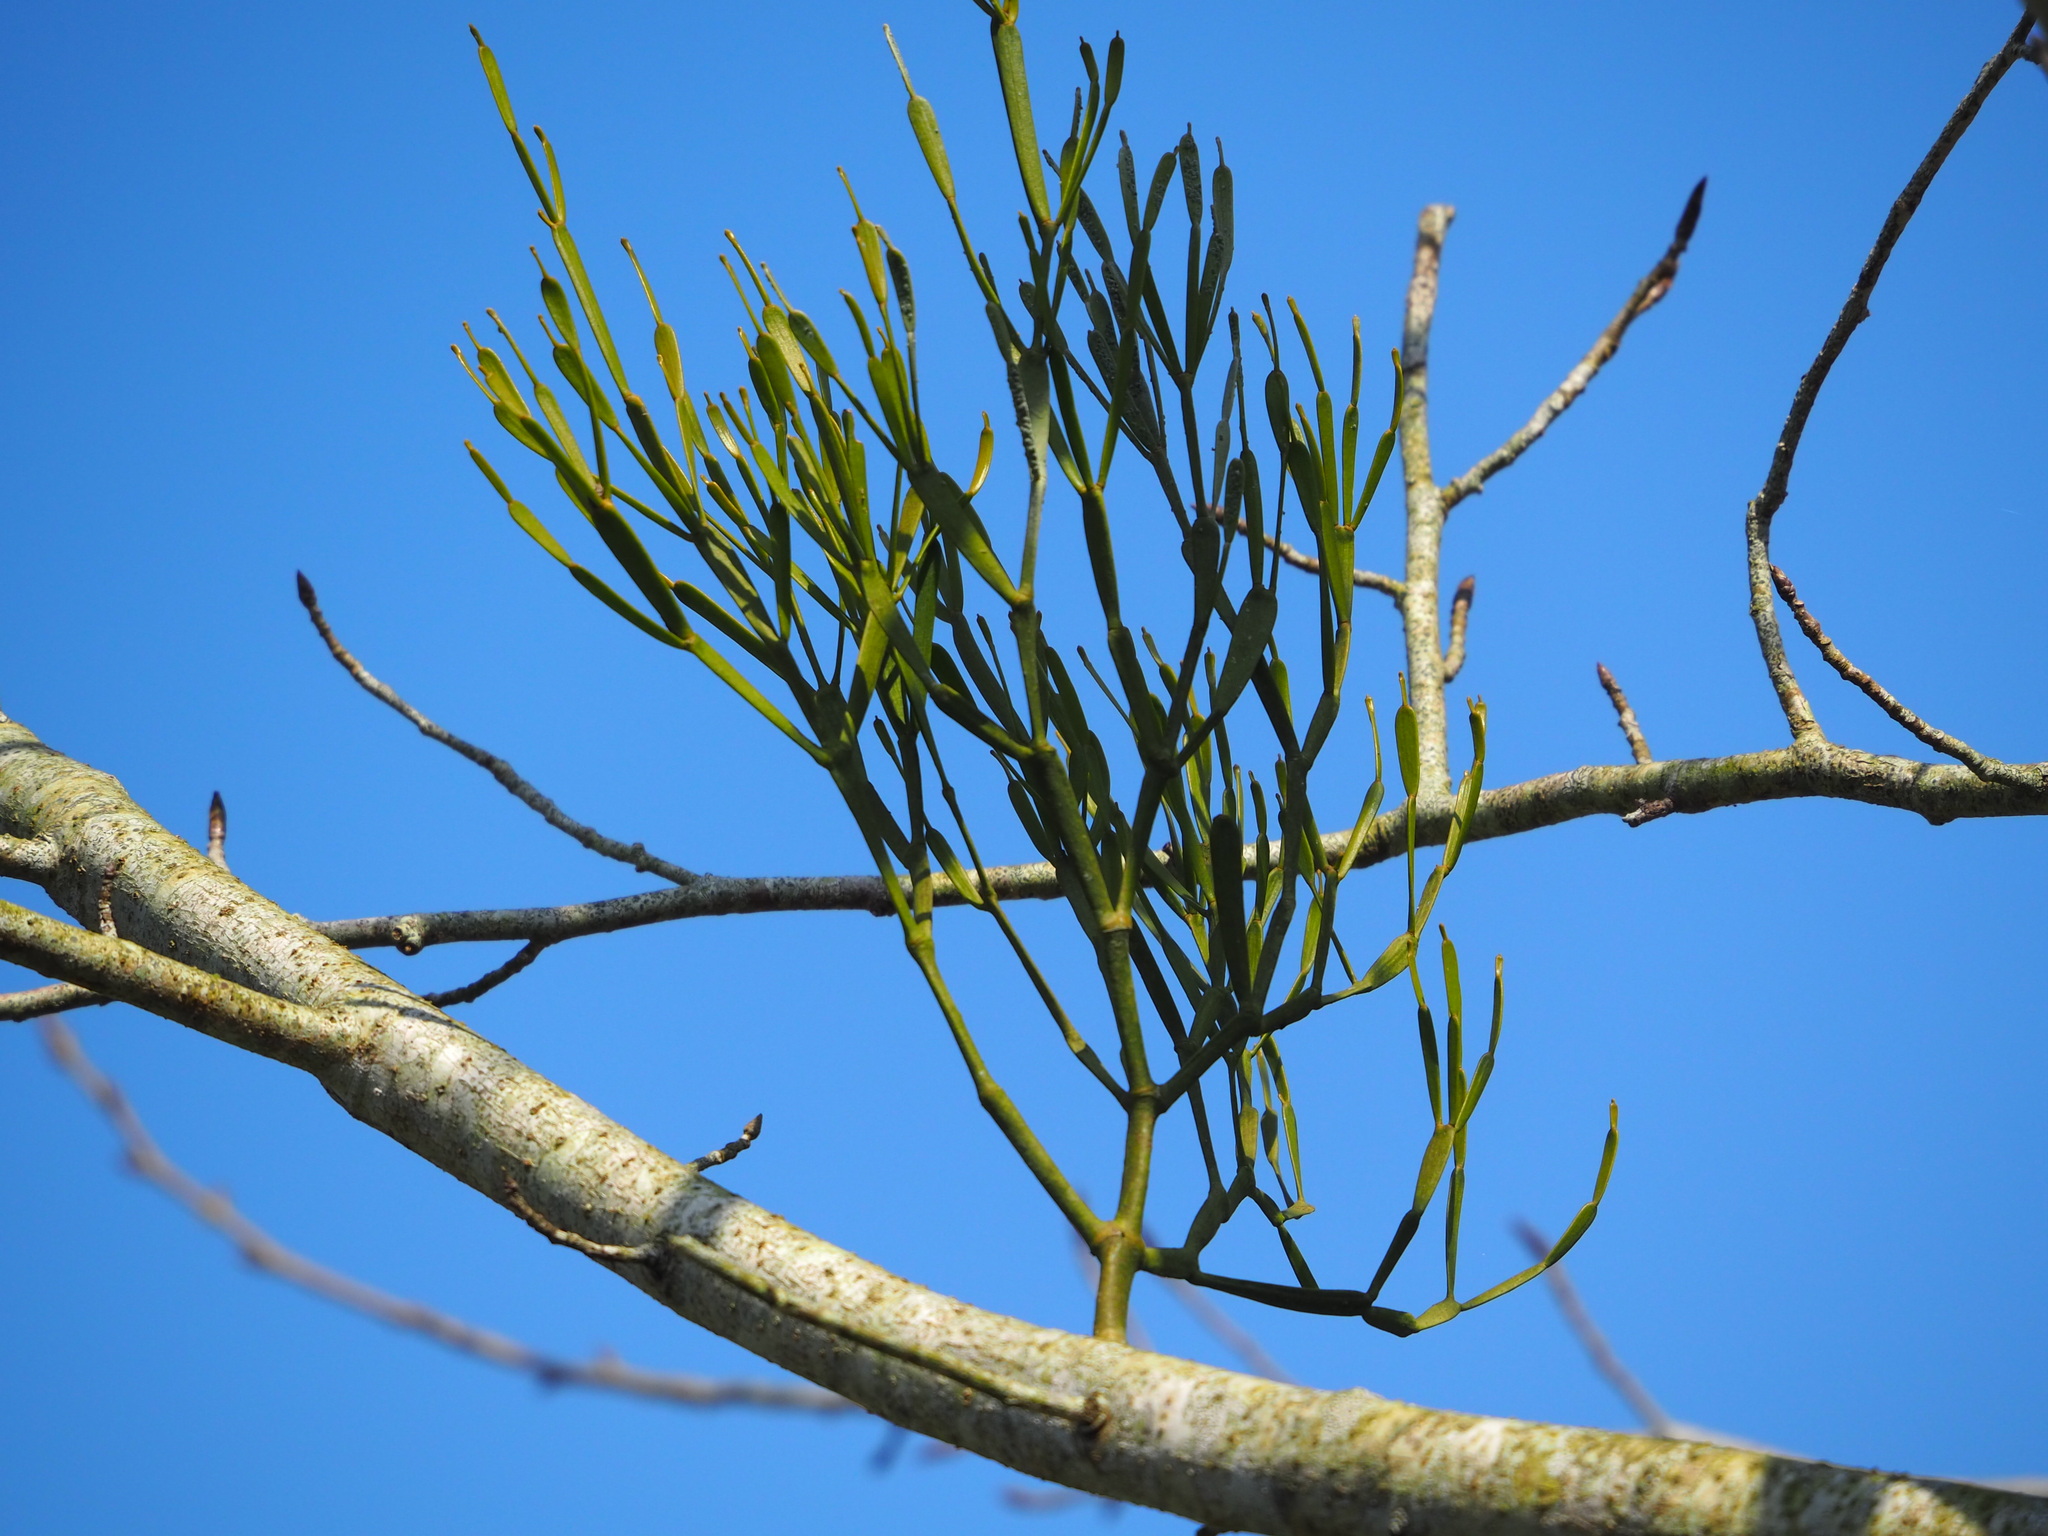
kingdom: Plantae
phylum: Tracheophyta
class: Magnoliopsida
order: Santalales
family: Viscaceae
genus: Viscum
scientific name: Viscum articulatum
